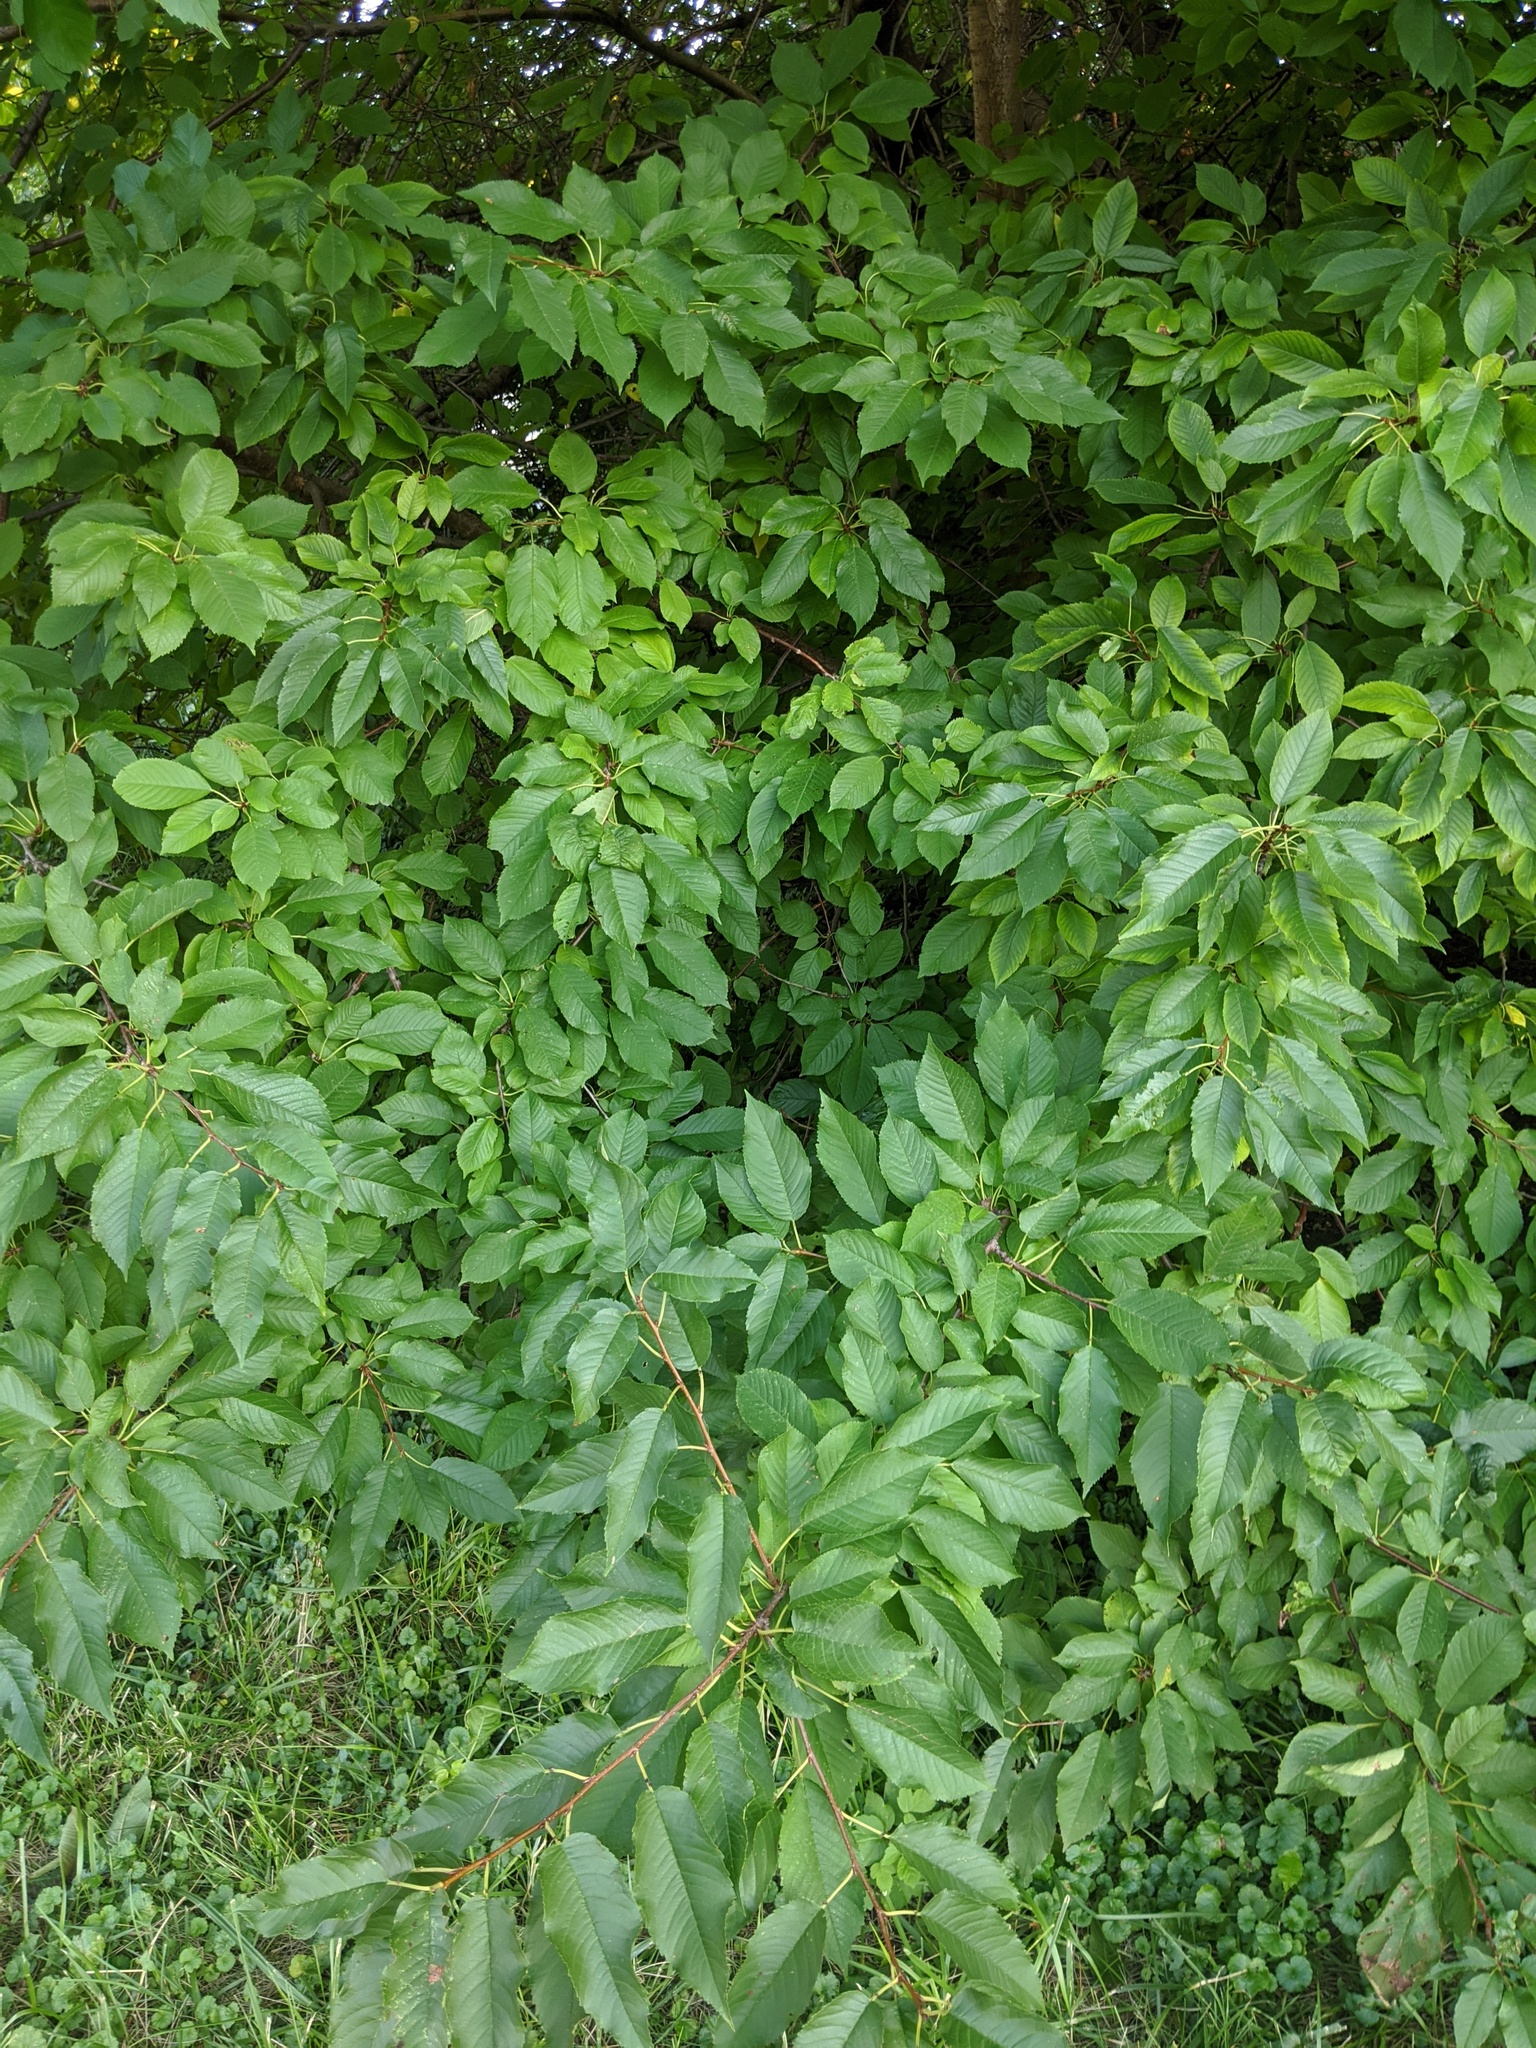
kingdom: Plantae
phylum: Tracheophyta
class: Magnoliopsida
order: Rosales
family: Rosaceae
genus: Prunus
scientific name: Prunus avium
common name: Sweet cherry
